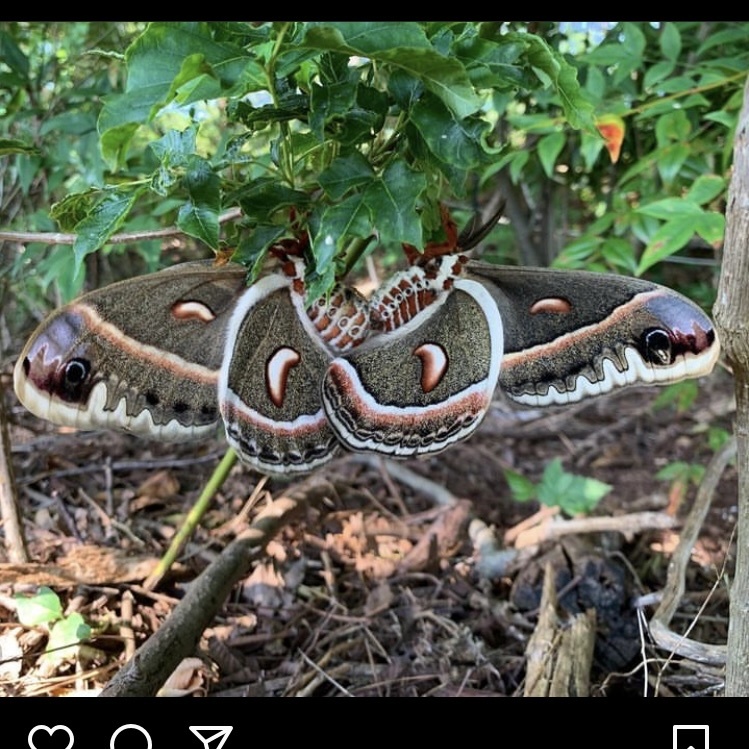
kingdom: Animalia
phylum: Arthropoda
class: Insecta
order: Lepidoptera
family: Saturniidae
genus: Hyalophora
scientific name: Hyalophora cecropia
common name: Cecropia silkmoth
